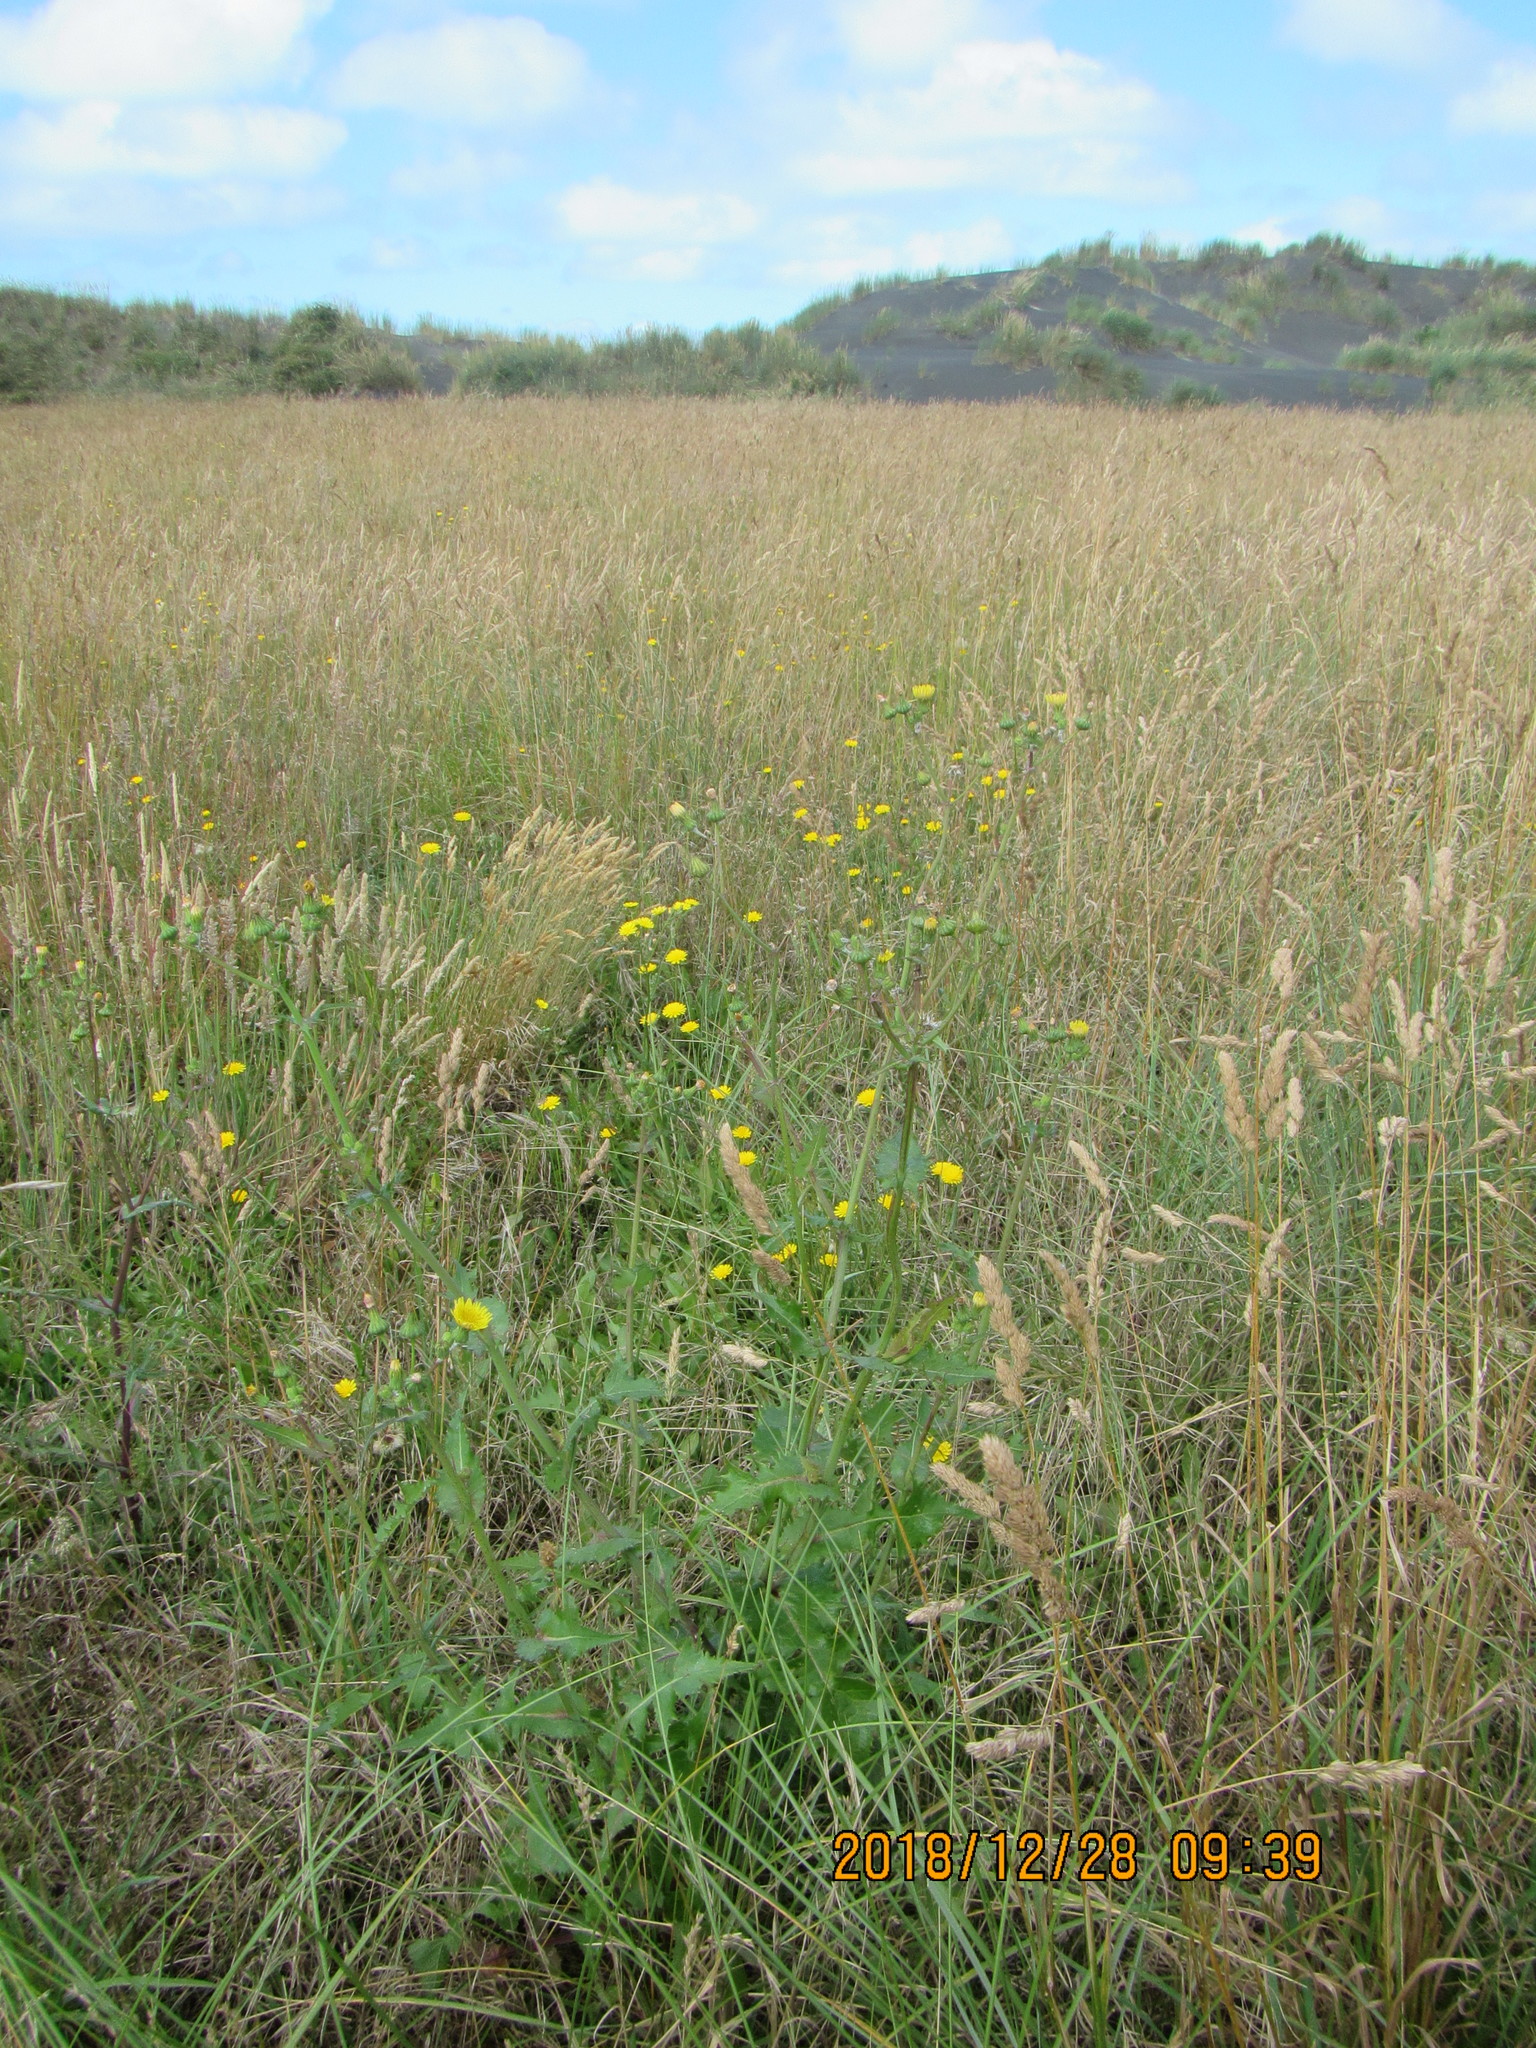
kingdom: Plantae
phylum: Tracheophyta
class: Magnoliopsida
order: Asterales
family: Asteraceae
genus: Sonchus
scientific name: Sonchus oleraceus
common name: Common sowthistle
